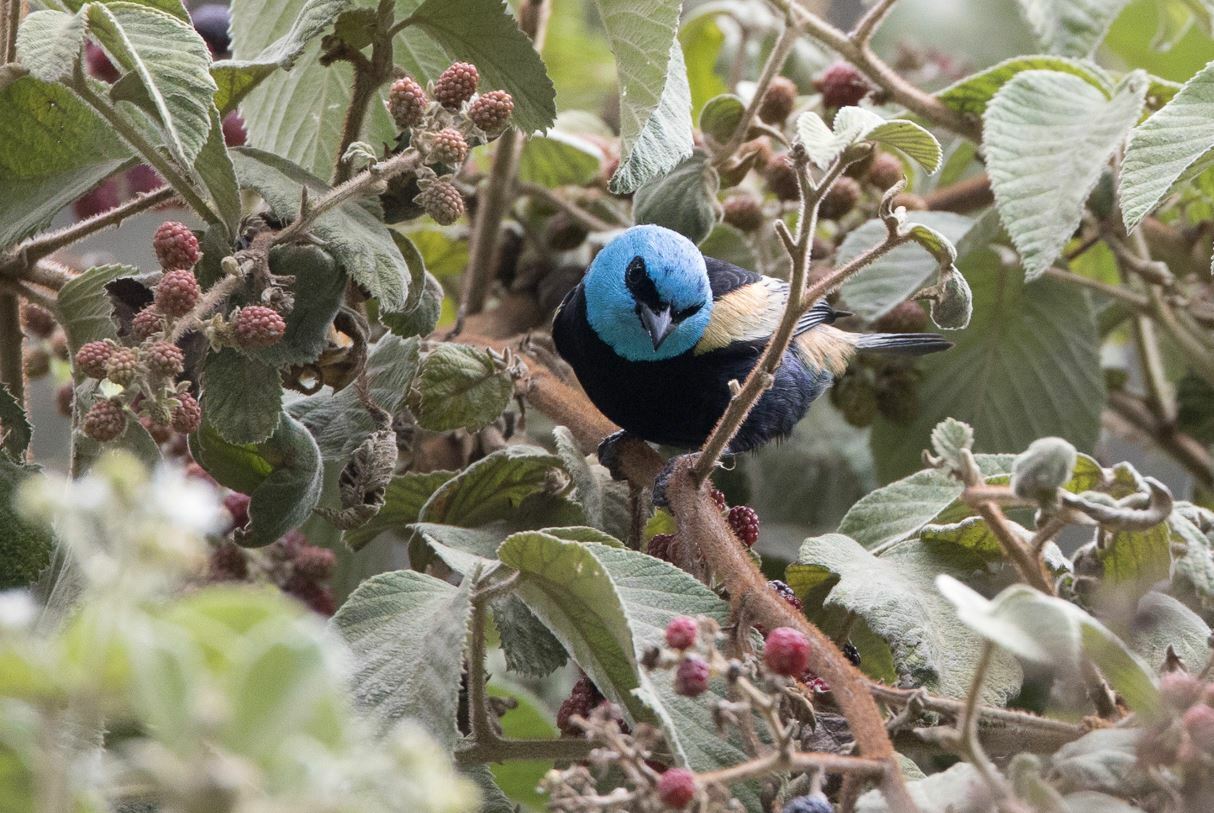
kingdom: Animalia
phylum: Chordata
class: Aves
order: Passeriformes
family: Thraupidae
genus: Stilpnia
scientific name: Stilpnia cyanicollis
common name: Blue-necked tanager
